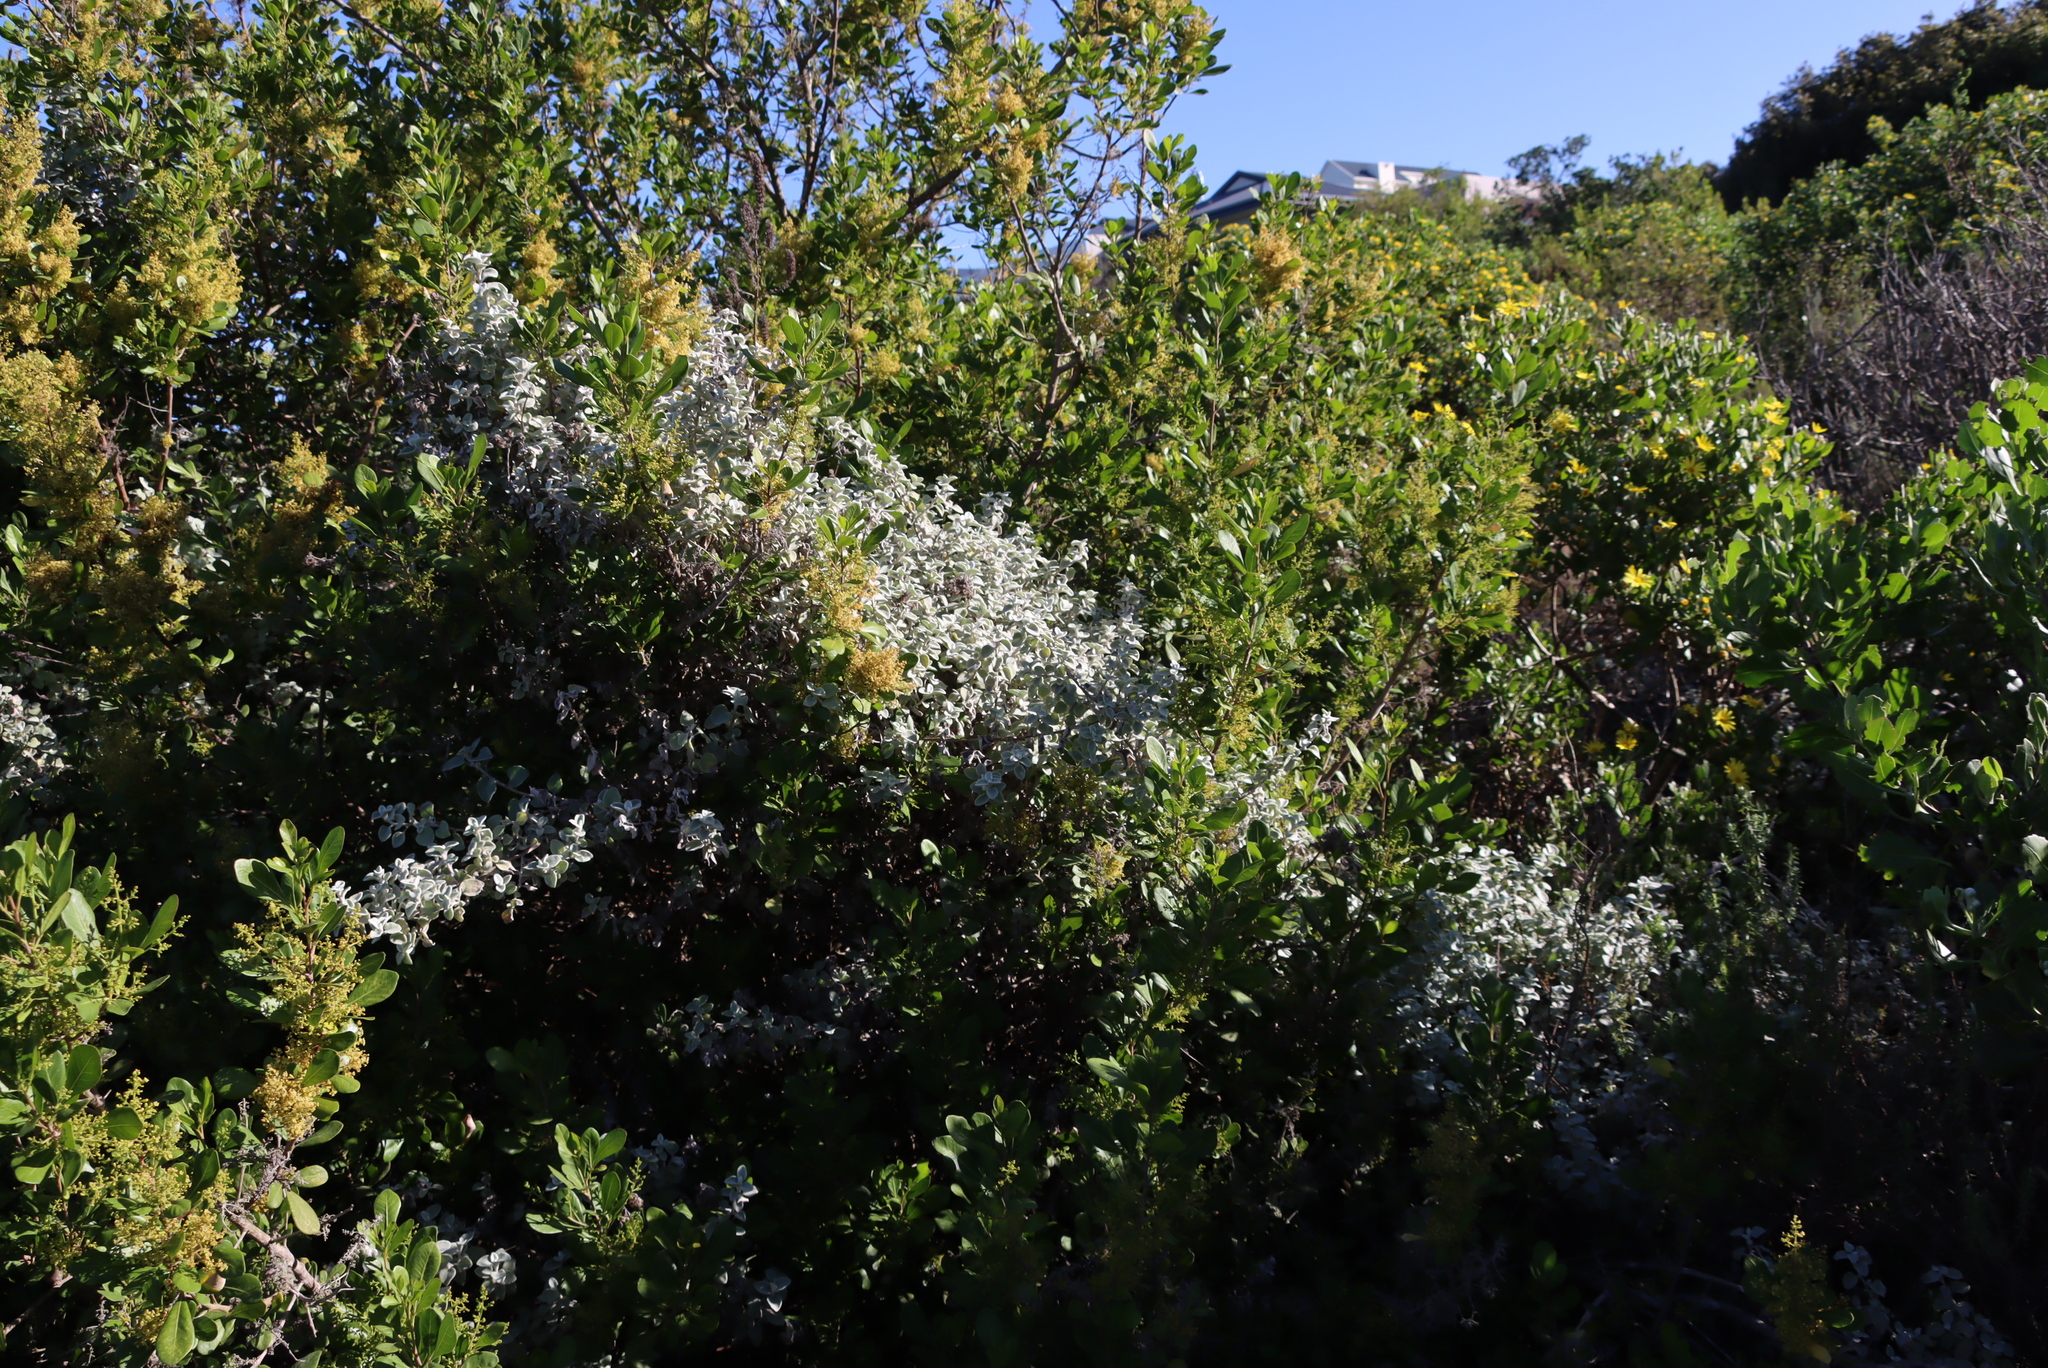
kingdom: Plantae
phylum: Tracheophyta
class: Magnoliopsida
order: Sapindales
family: Anacardiaceae
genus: Searsia
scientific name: Searsia lucida
